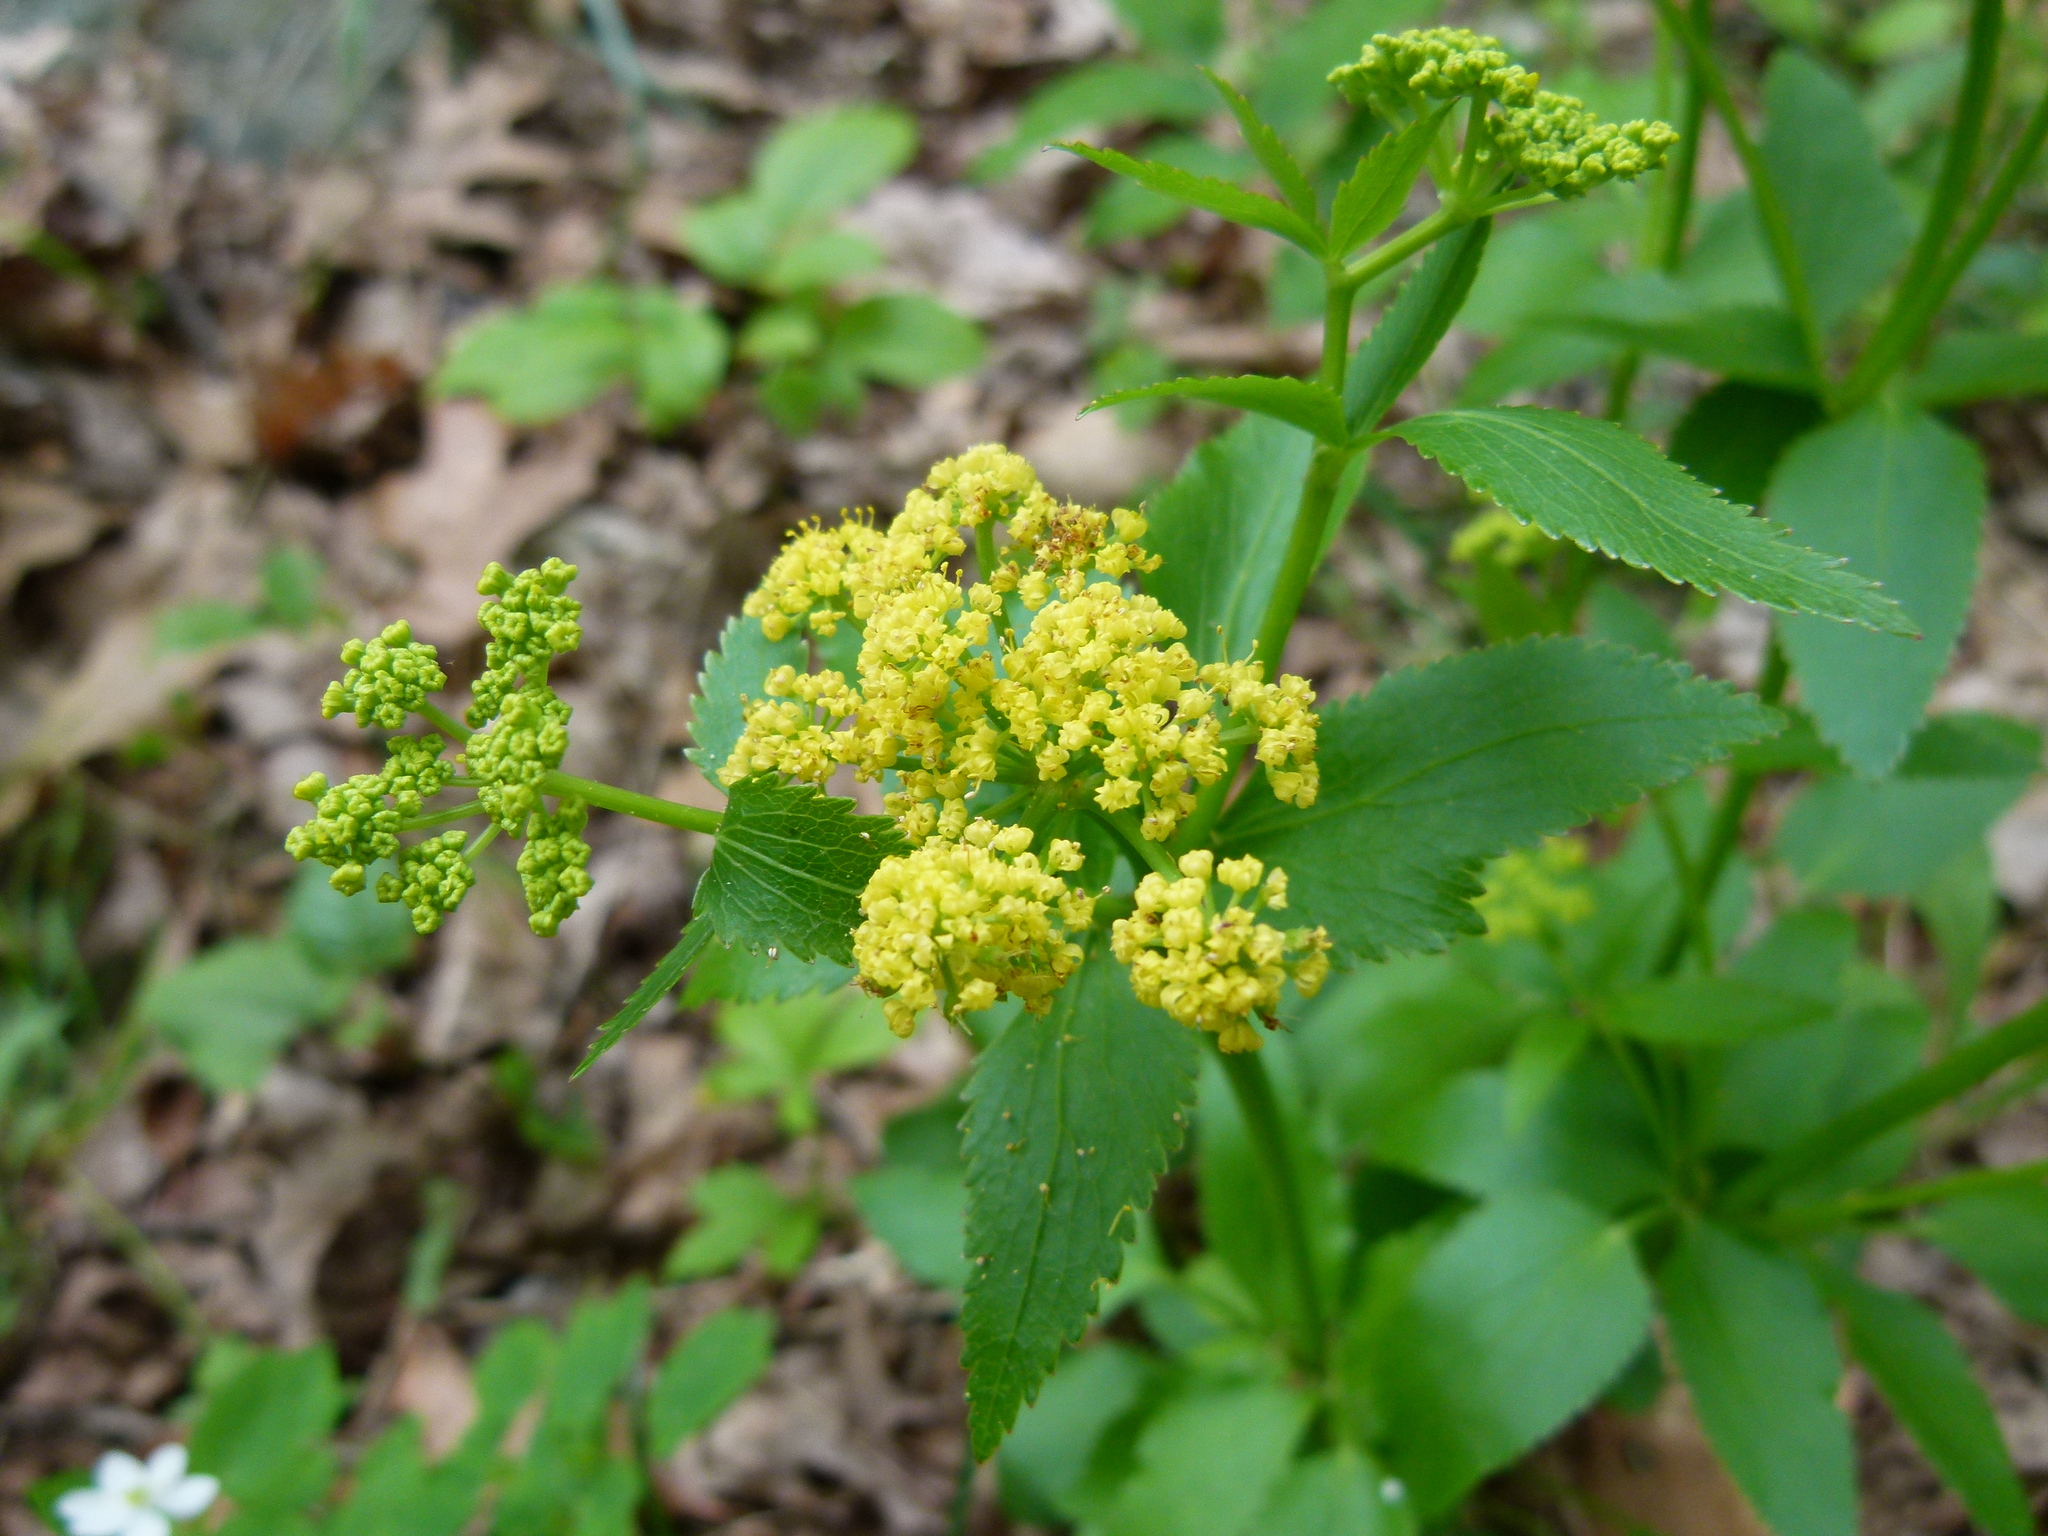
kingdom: Plantae
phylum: Tracheophyta
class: Magnoliopsida
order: Apiales
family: Apiaceae
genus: Zizia
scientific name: Zizia aurea
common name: Golden alexanders
